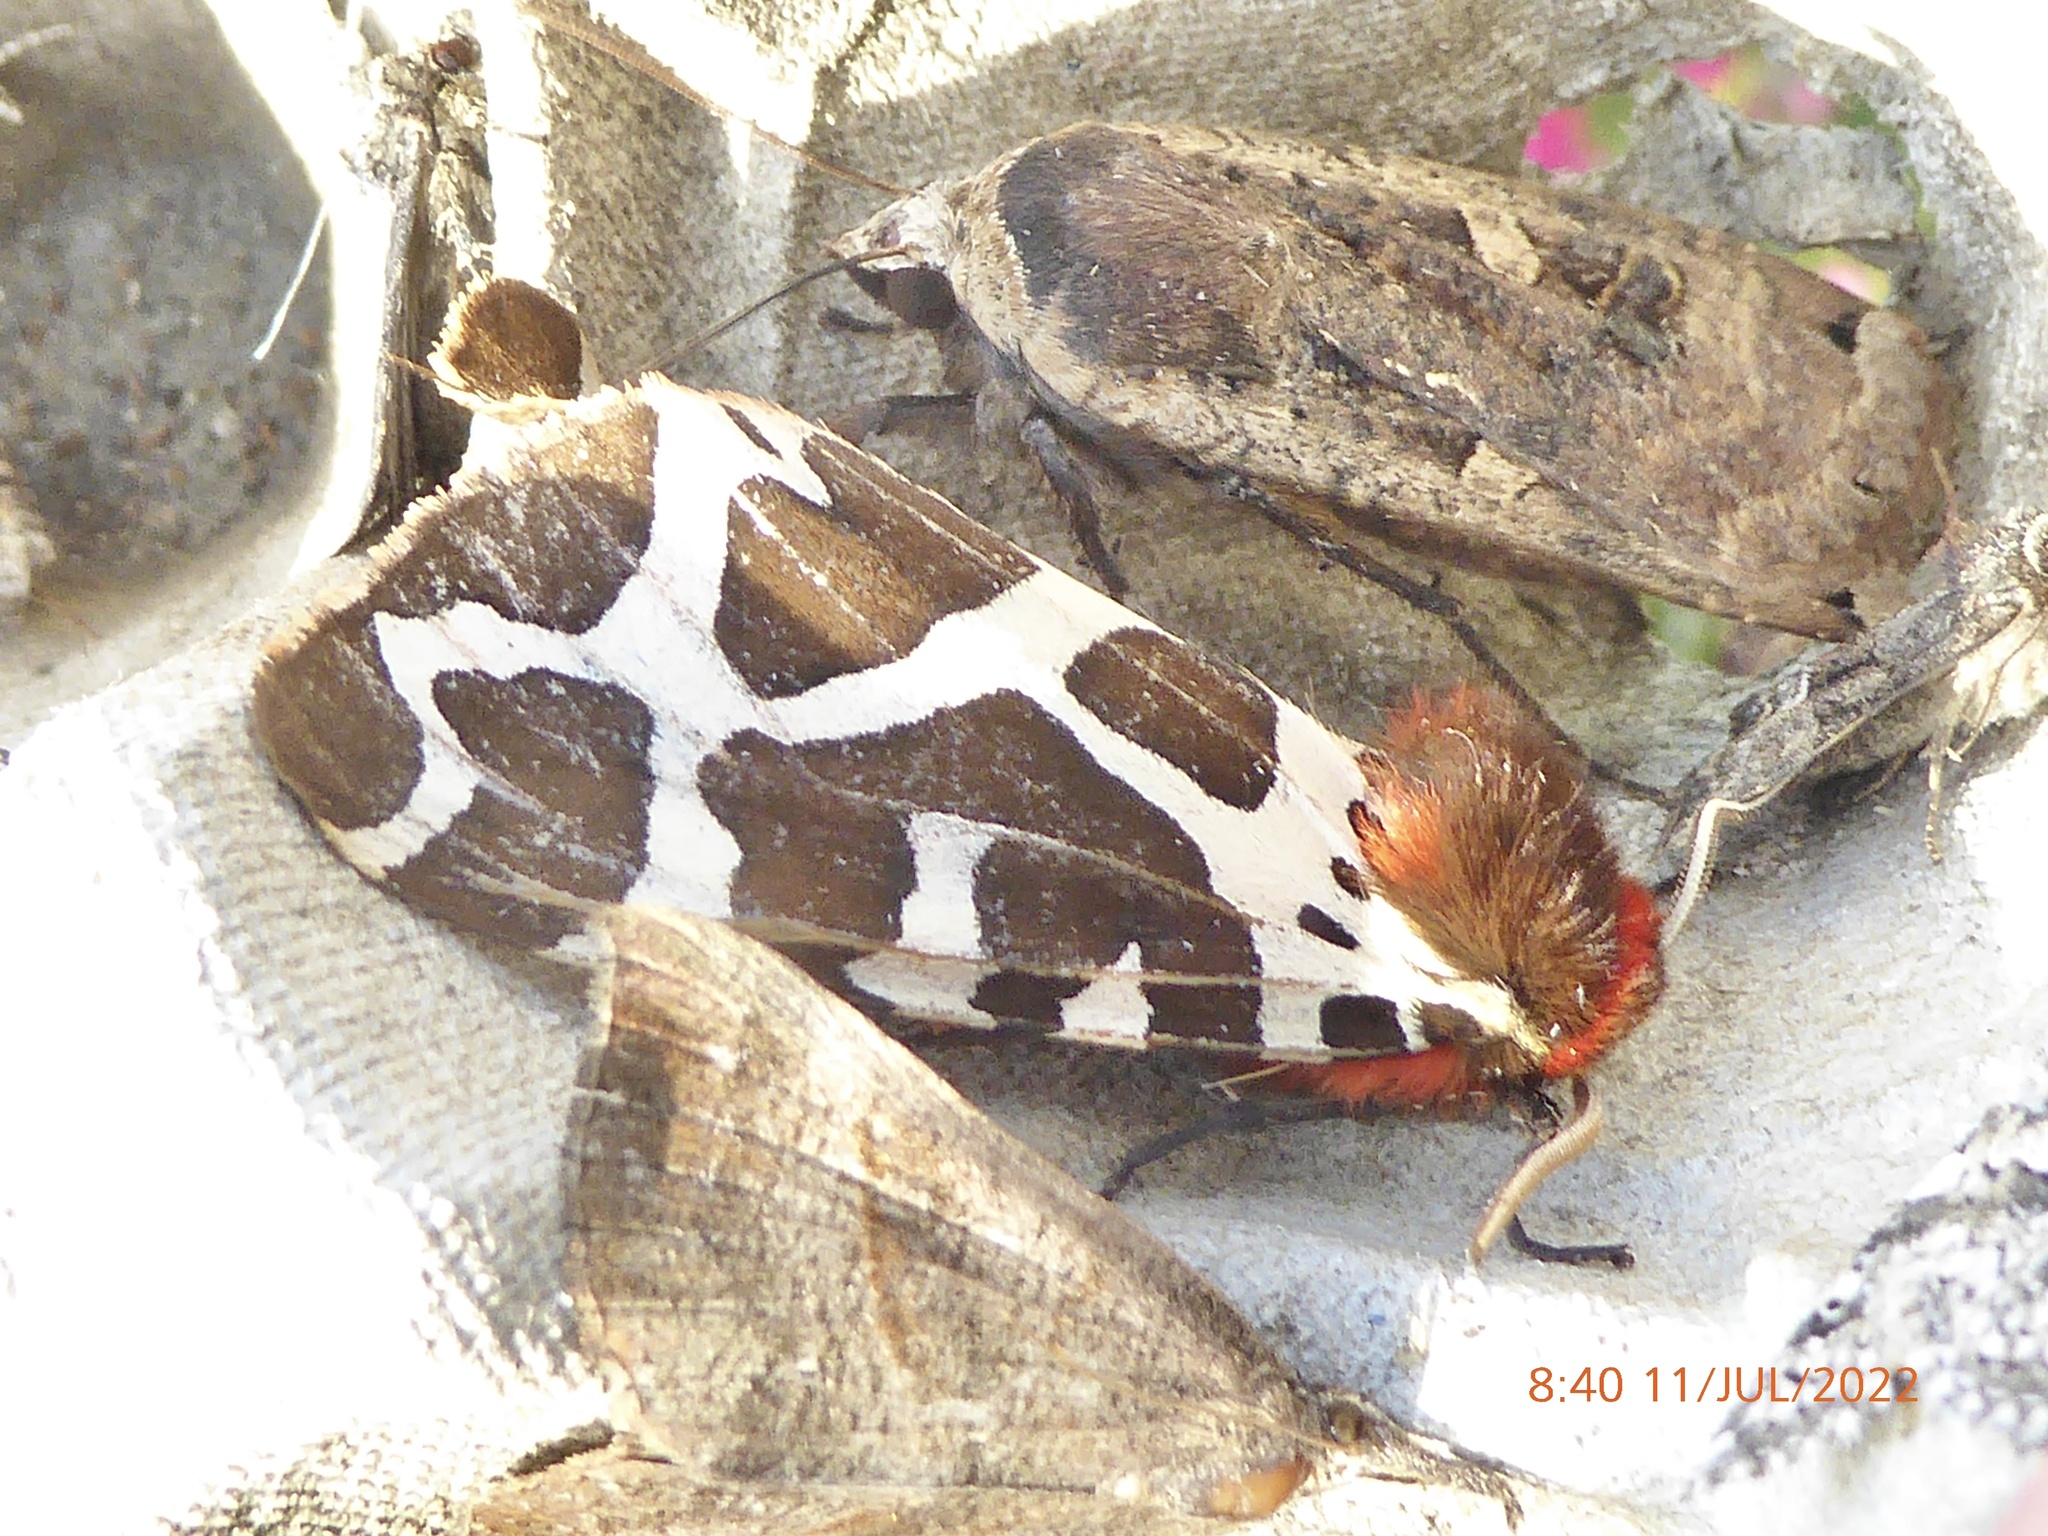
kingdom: Animalia
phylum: Arthropoda
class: Insecta
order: Lepidoptera
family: Erebidae
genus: Arctia
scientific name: Arctia caja
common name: Garden tiger
